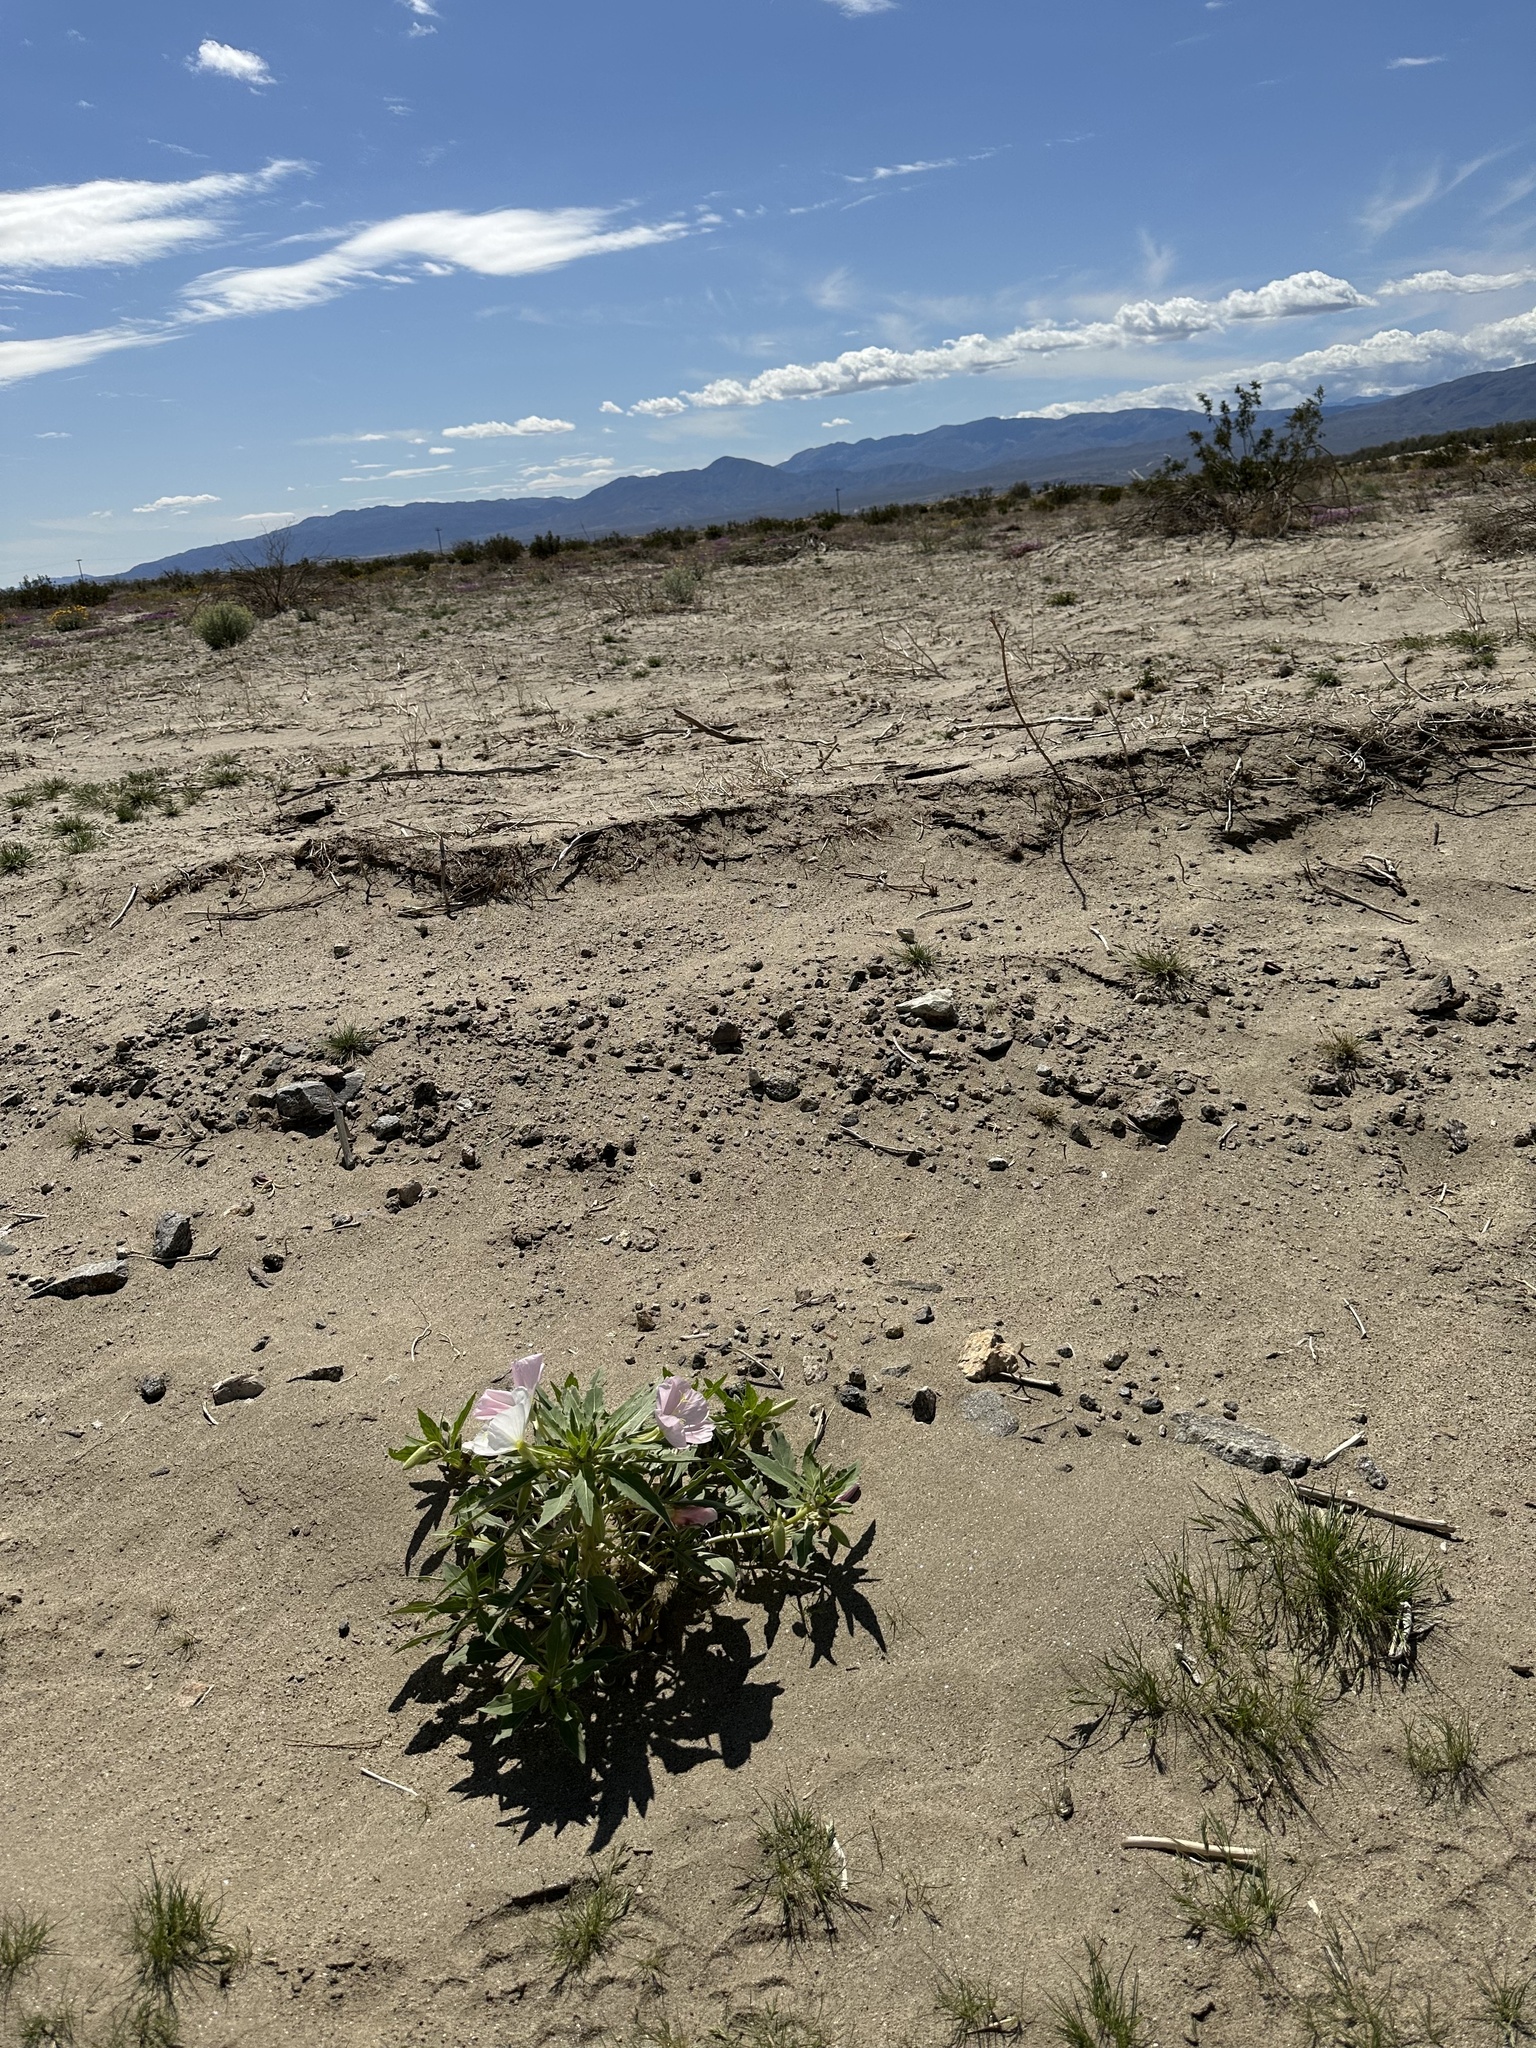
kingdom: Plantae
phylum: Tracheophyta
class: Magnoliopsida
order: Myrtales
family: Onagraceae
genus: Oenothera
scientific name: Oenothera deltoides
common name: Basket evening-primrose
